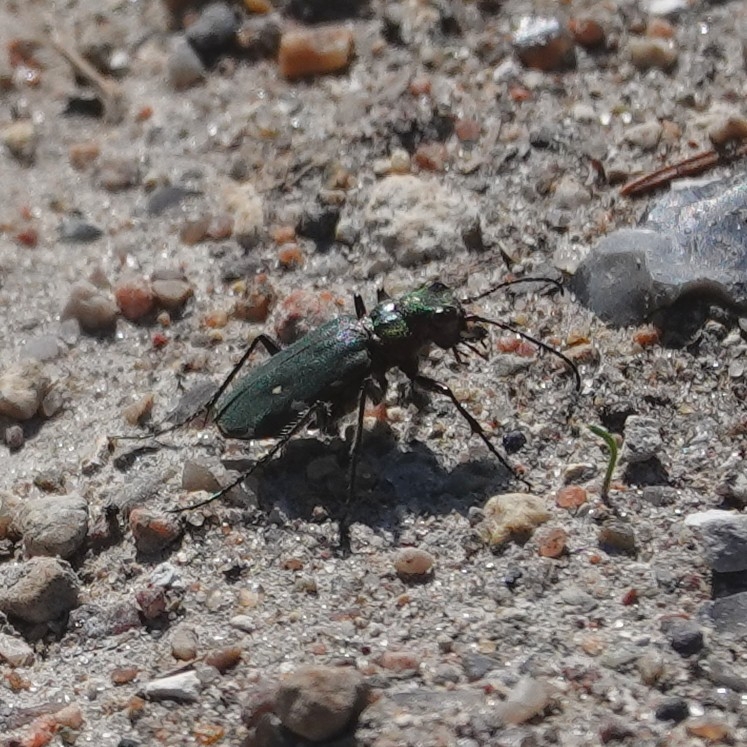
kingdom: Animalia
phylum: Arthropoda
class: Insecta
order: Coleoptera
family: Carabidae
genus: Cicindela
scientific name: Cicindela campestris
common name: Common tiger beetle
